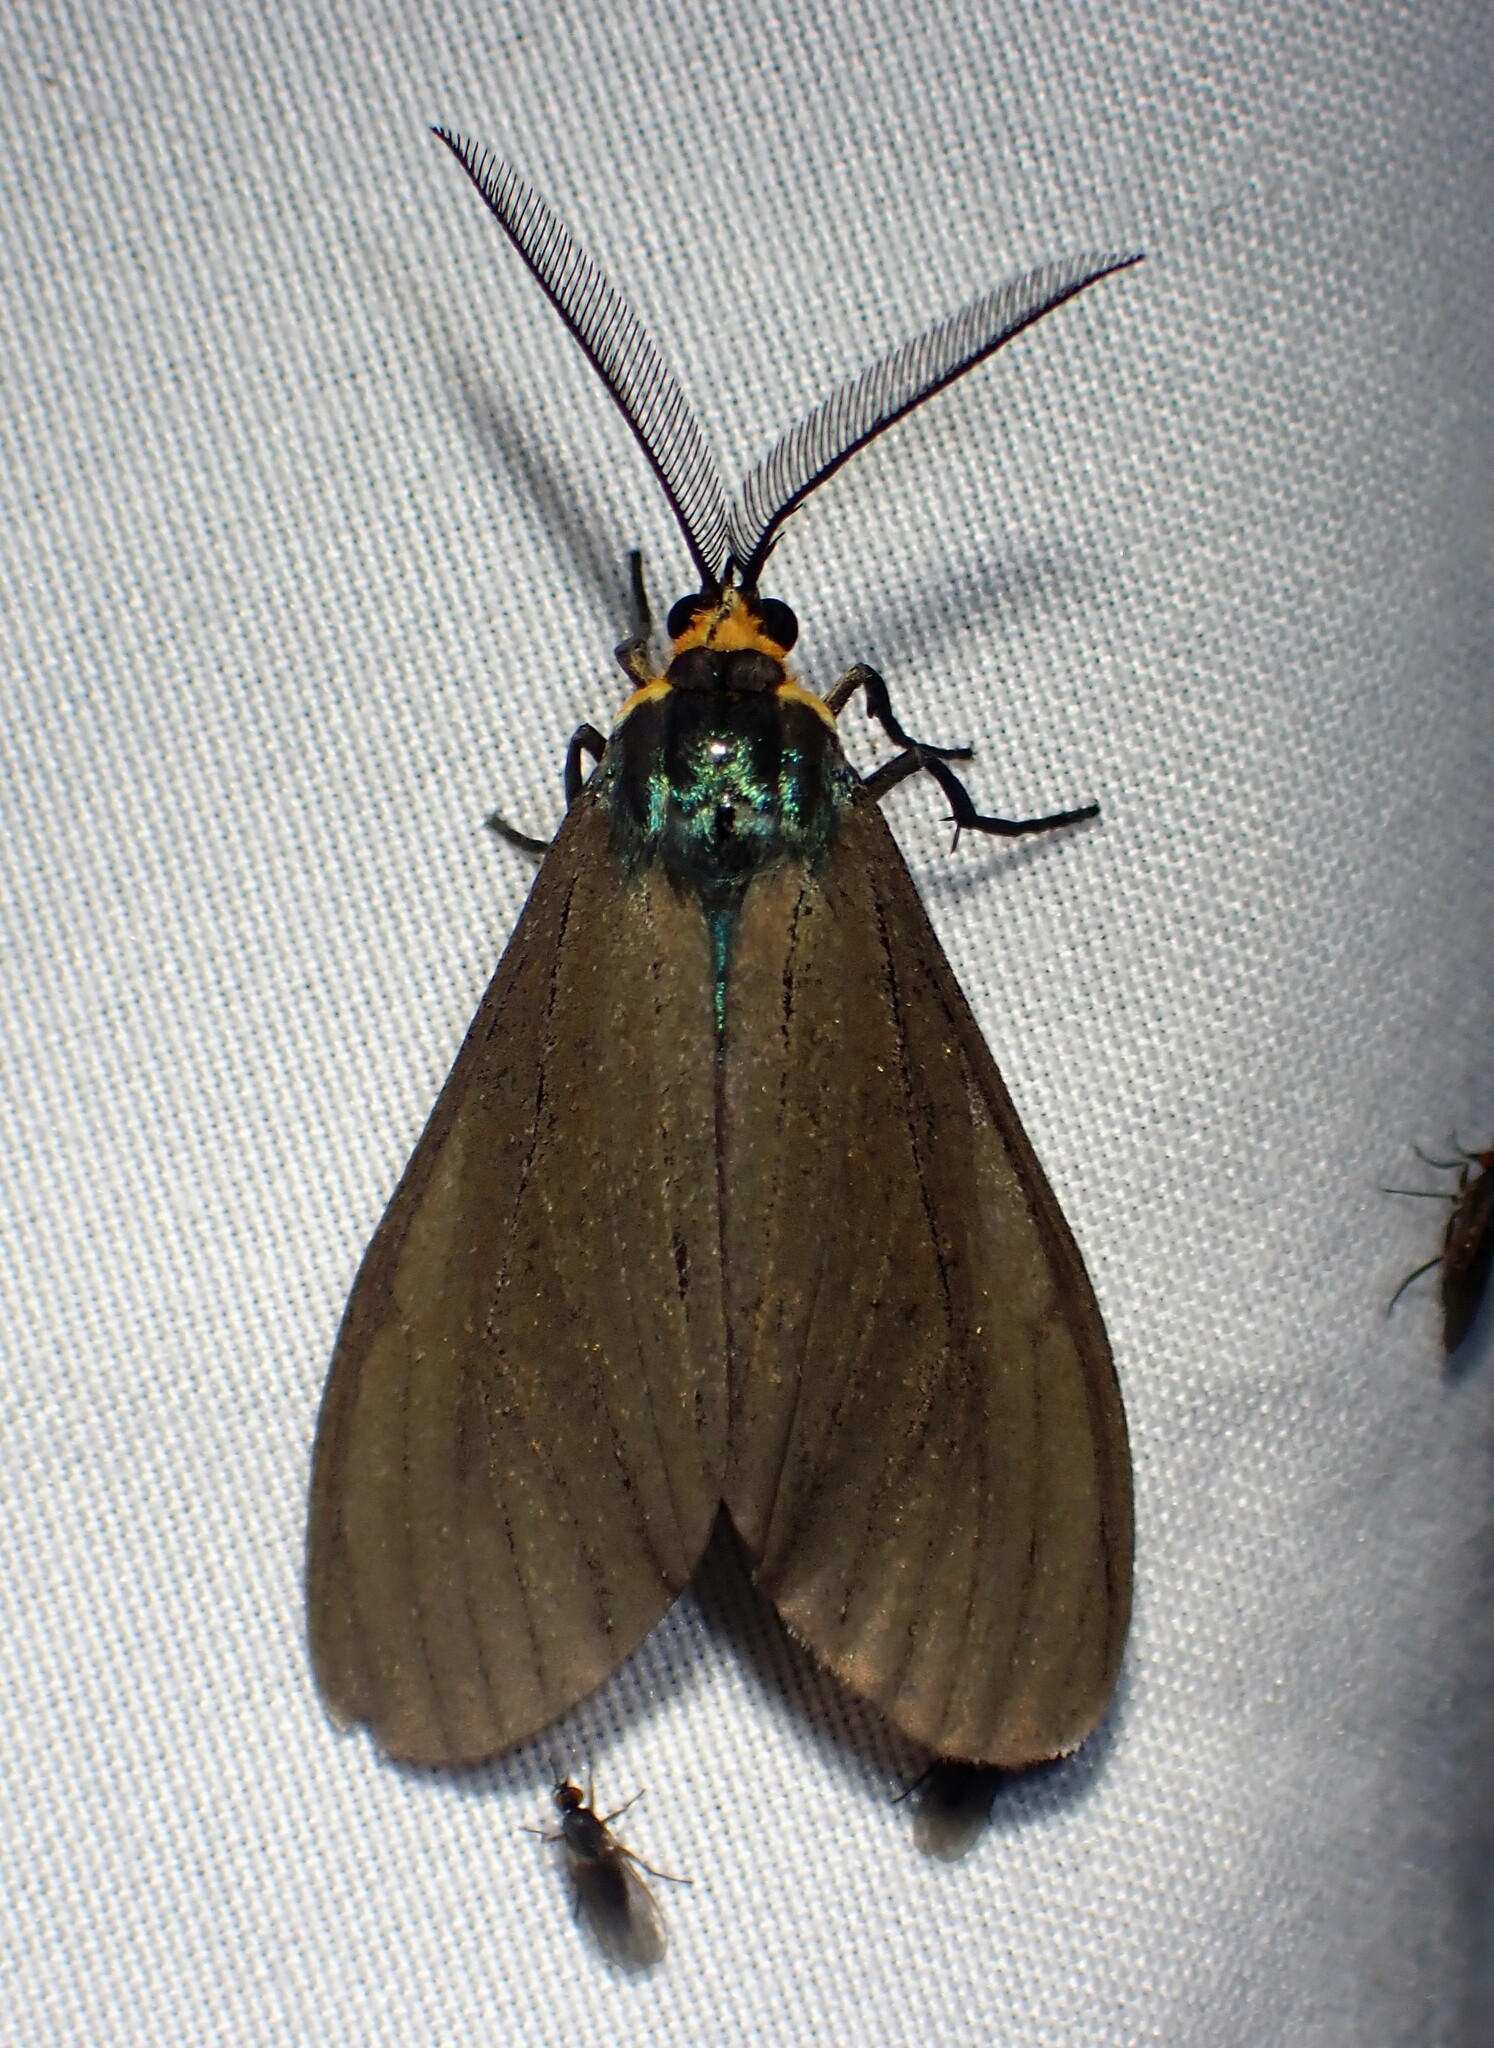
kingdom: Animalia
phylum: Arthropoda
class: Insecta
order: Lepidoptera
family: Erebidae
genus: Ctenucha
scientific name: Ctenucha virginica
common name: Virginia ctenucha moth
